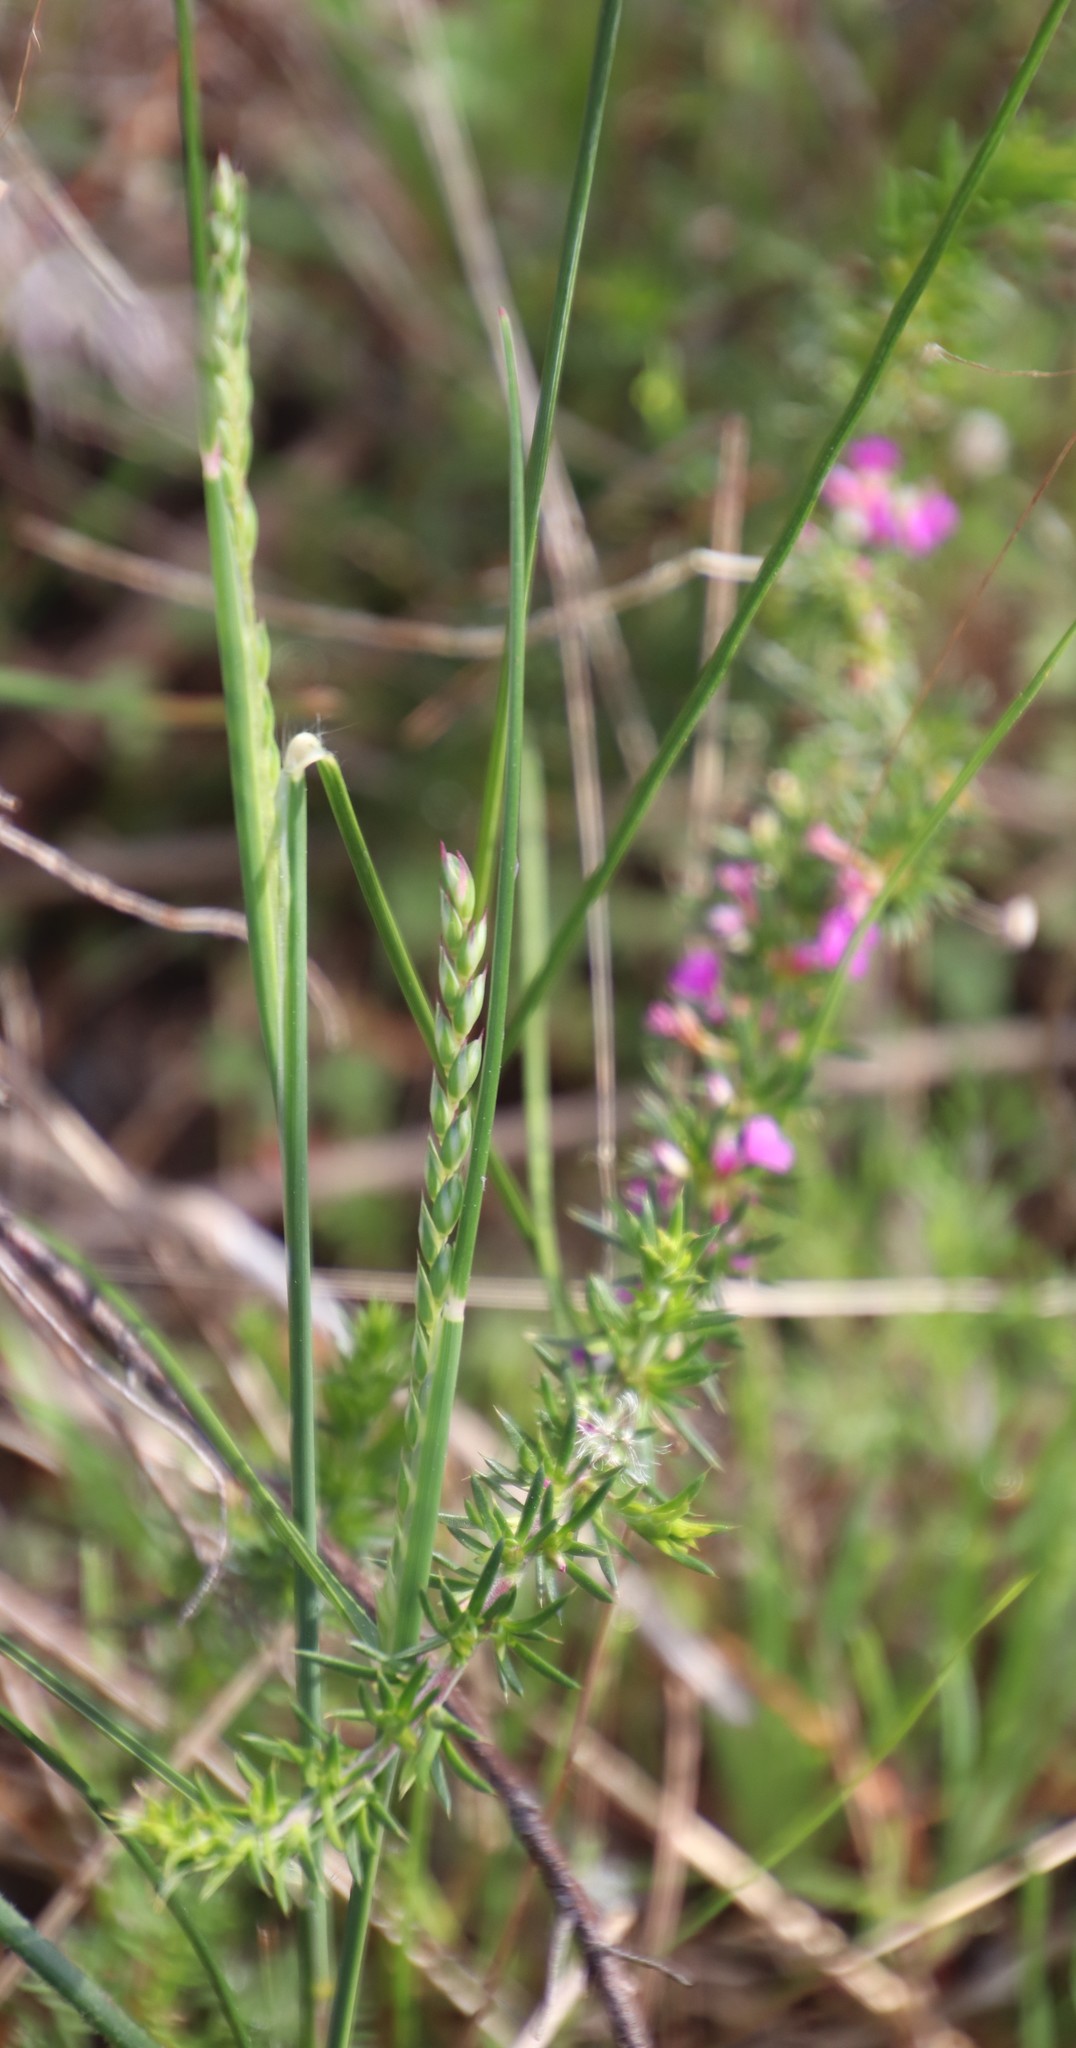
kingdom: Plantae
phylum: Tracheophyta
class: Liliopsida
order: Poales
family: Poaceae
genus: Tribolium
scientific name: Tribolium uniolae
